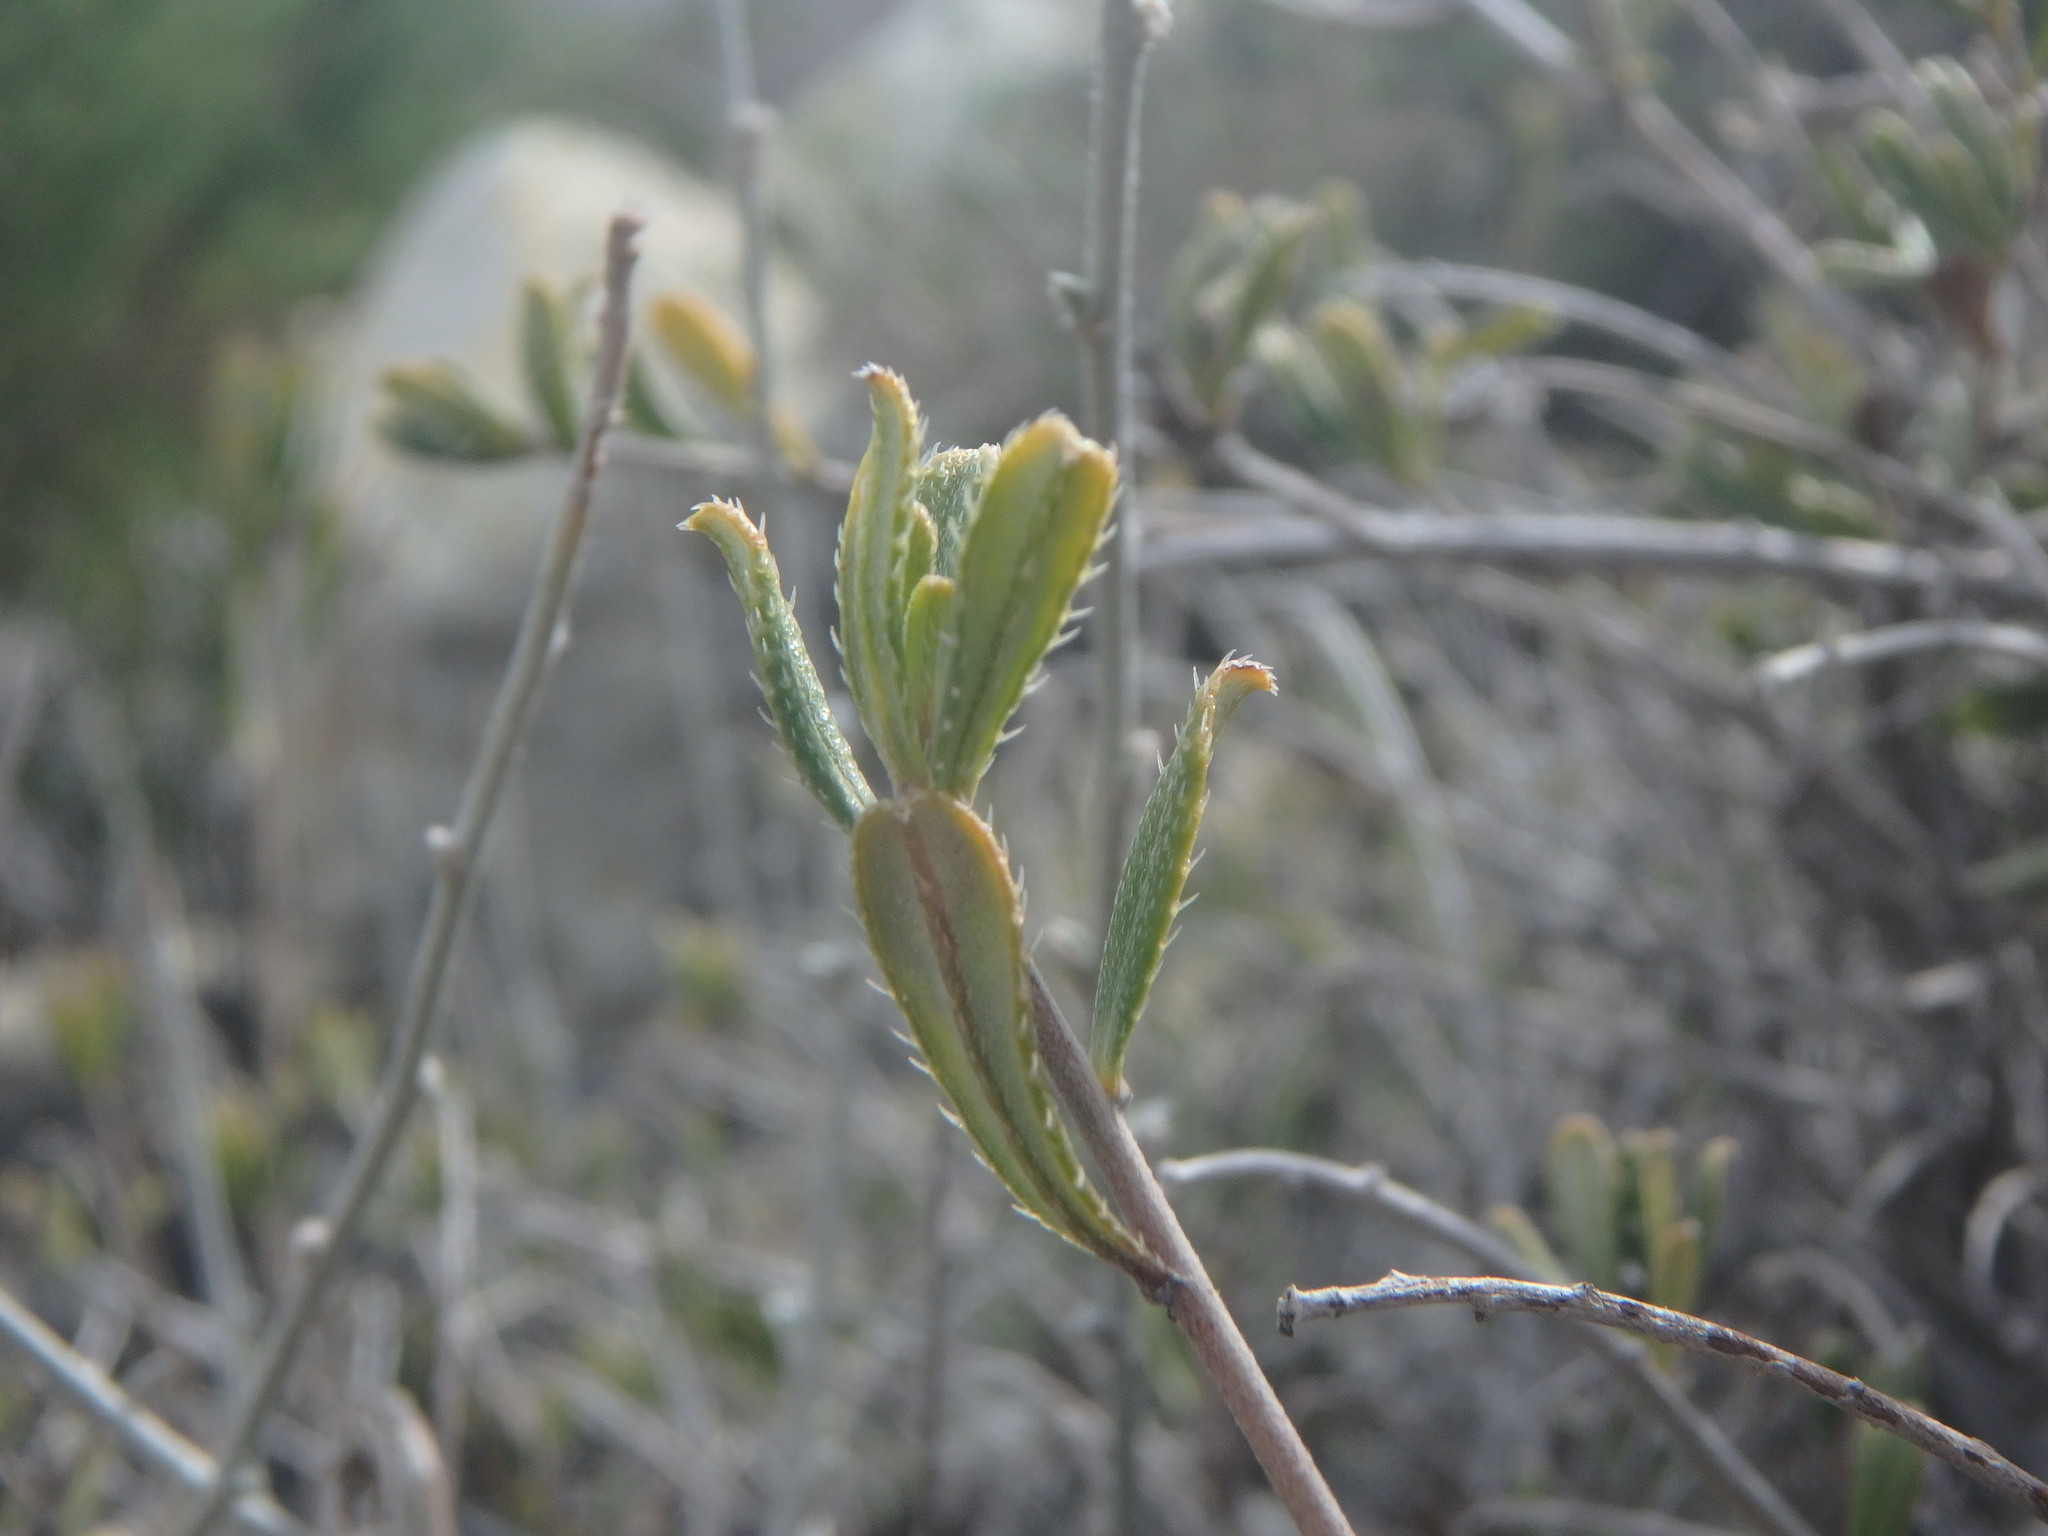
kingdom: Plantae
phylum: Tracheophyta
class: Magnoliopsida
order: Boraginales
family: Boraginaceae
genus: Lithodora
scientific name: Lithodora hispidula
